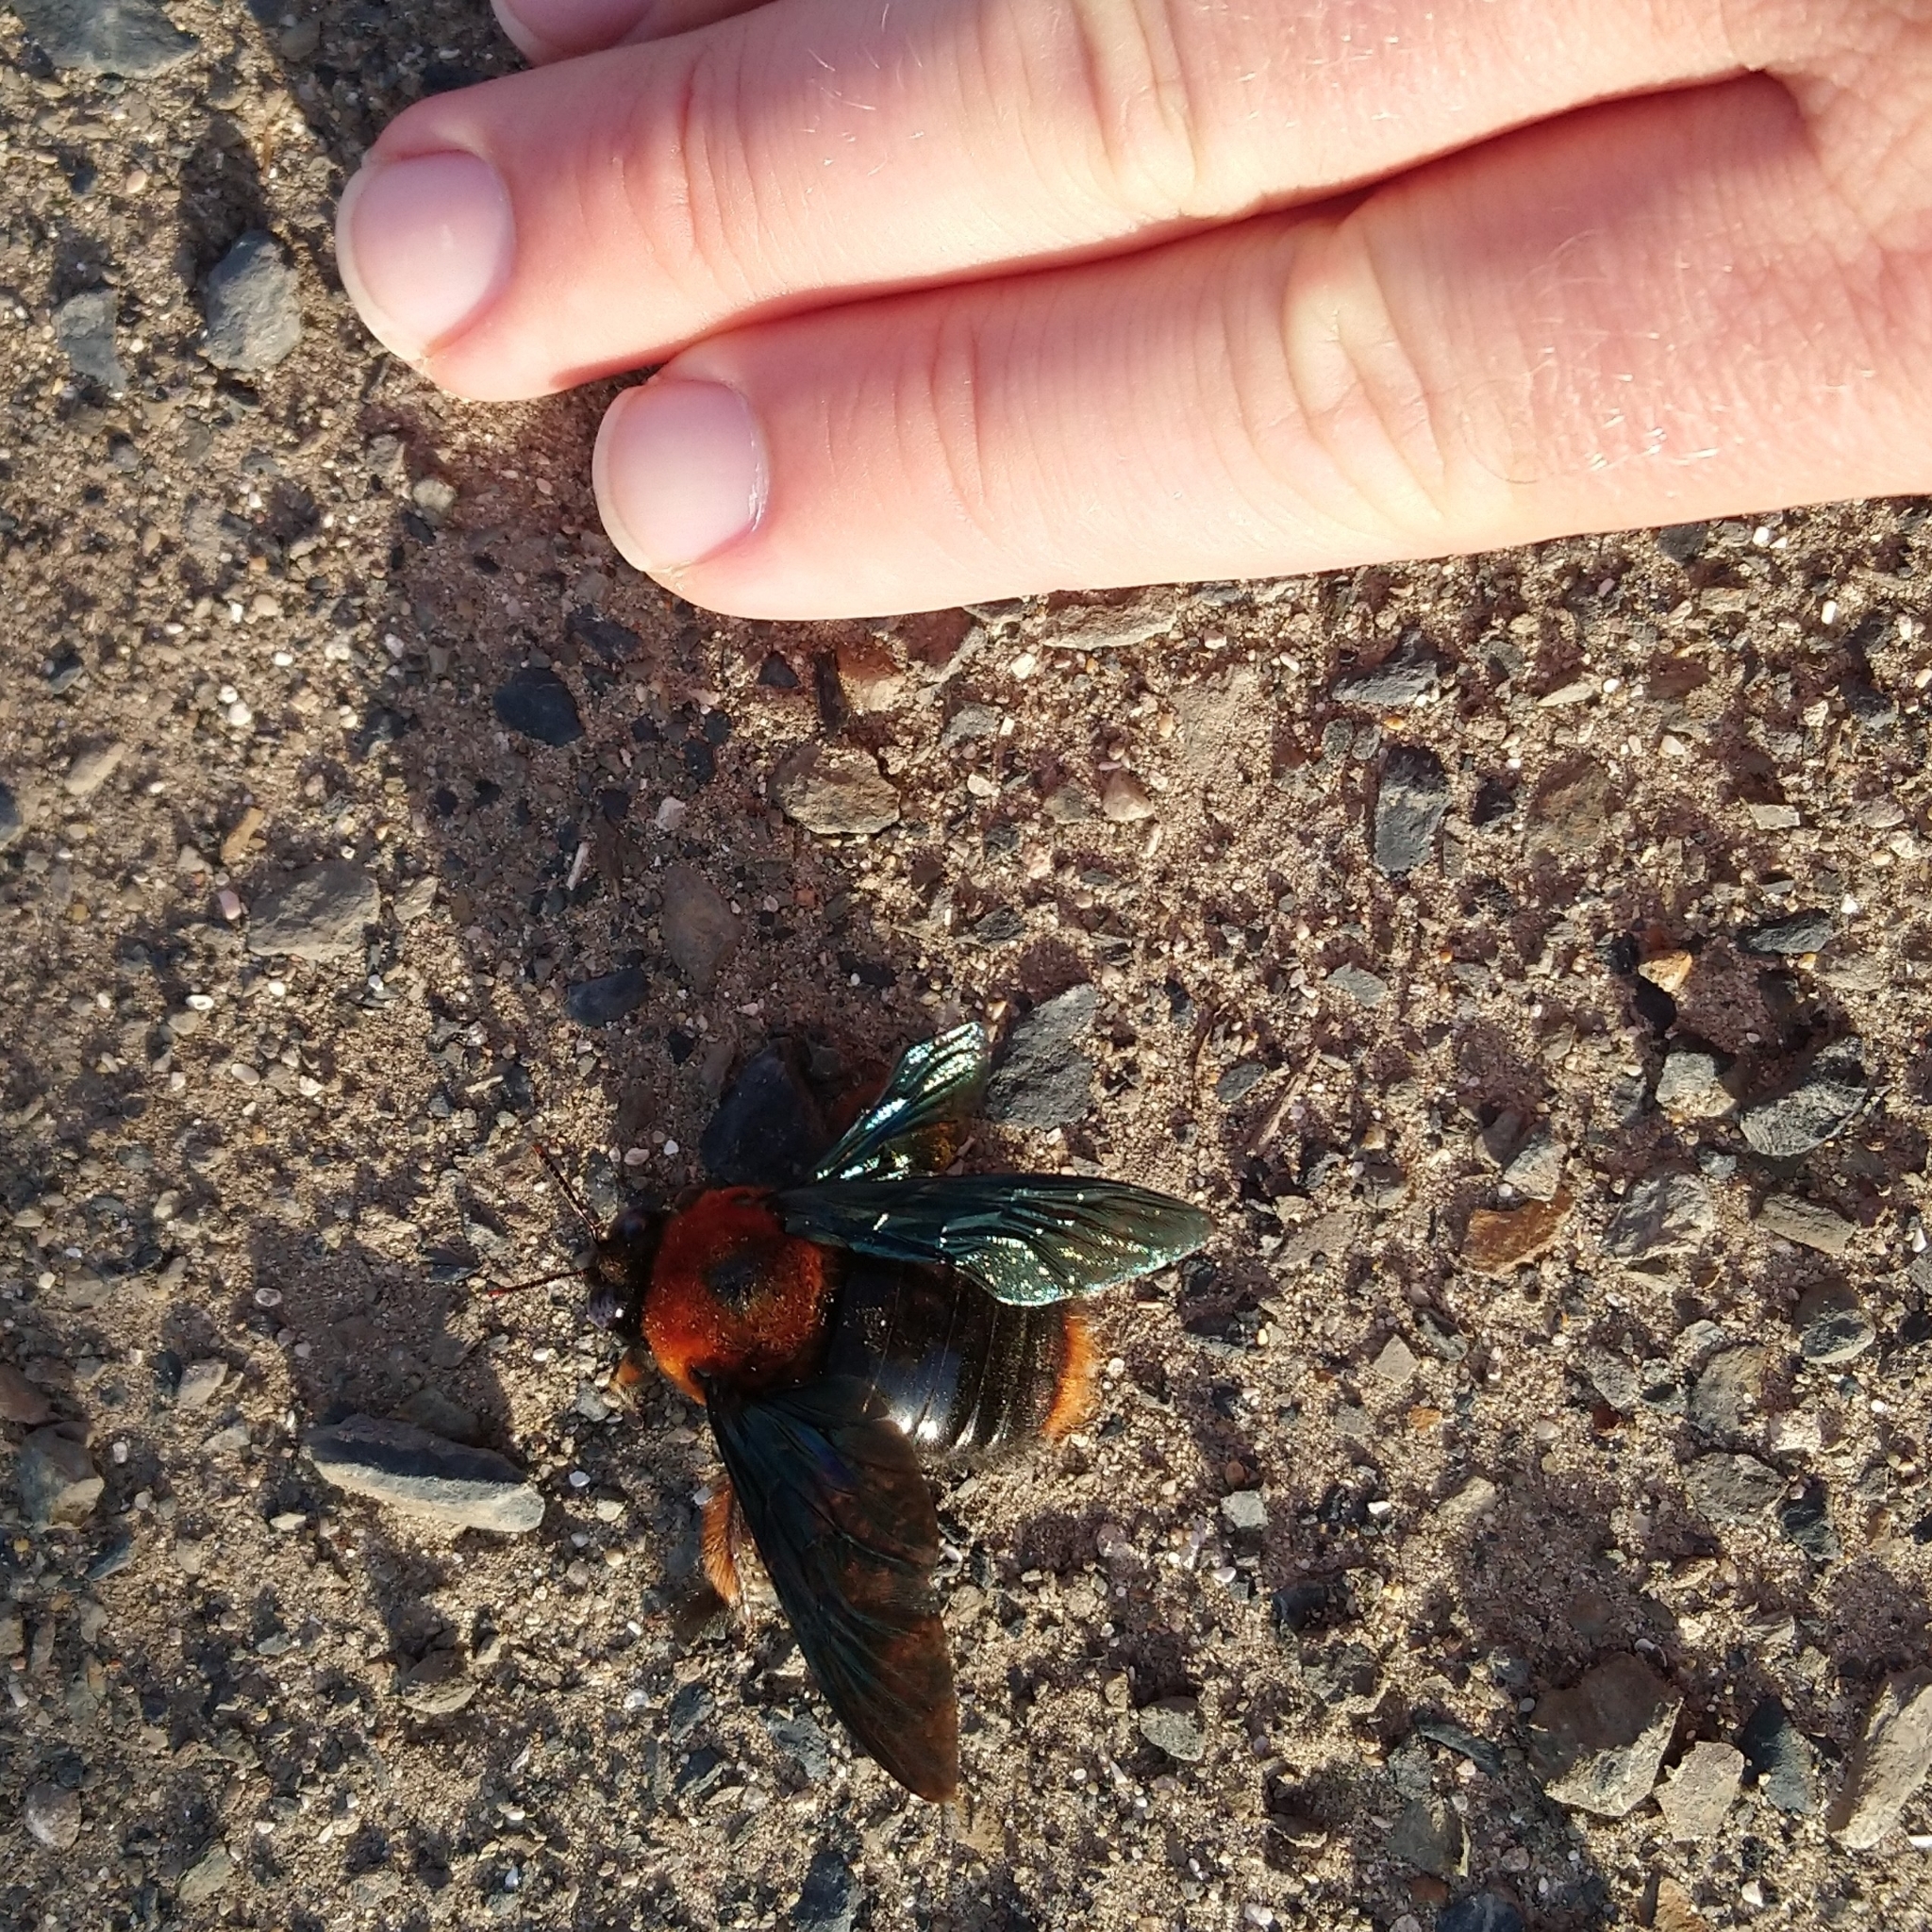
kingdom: Animalia
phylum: Arthropoda
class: Insecta
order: Hymenoptera
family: Apidae
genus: Xylocopa
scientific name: Xylocopa flavorufa
